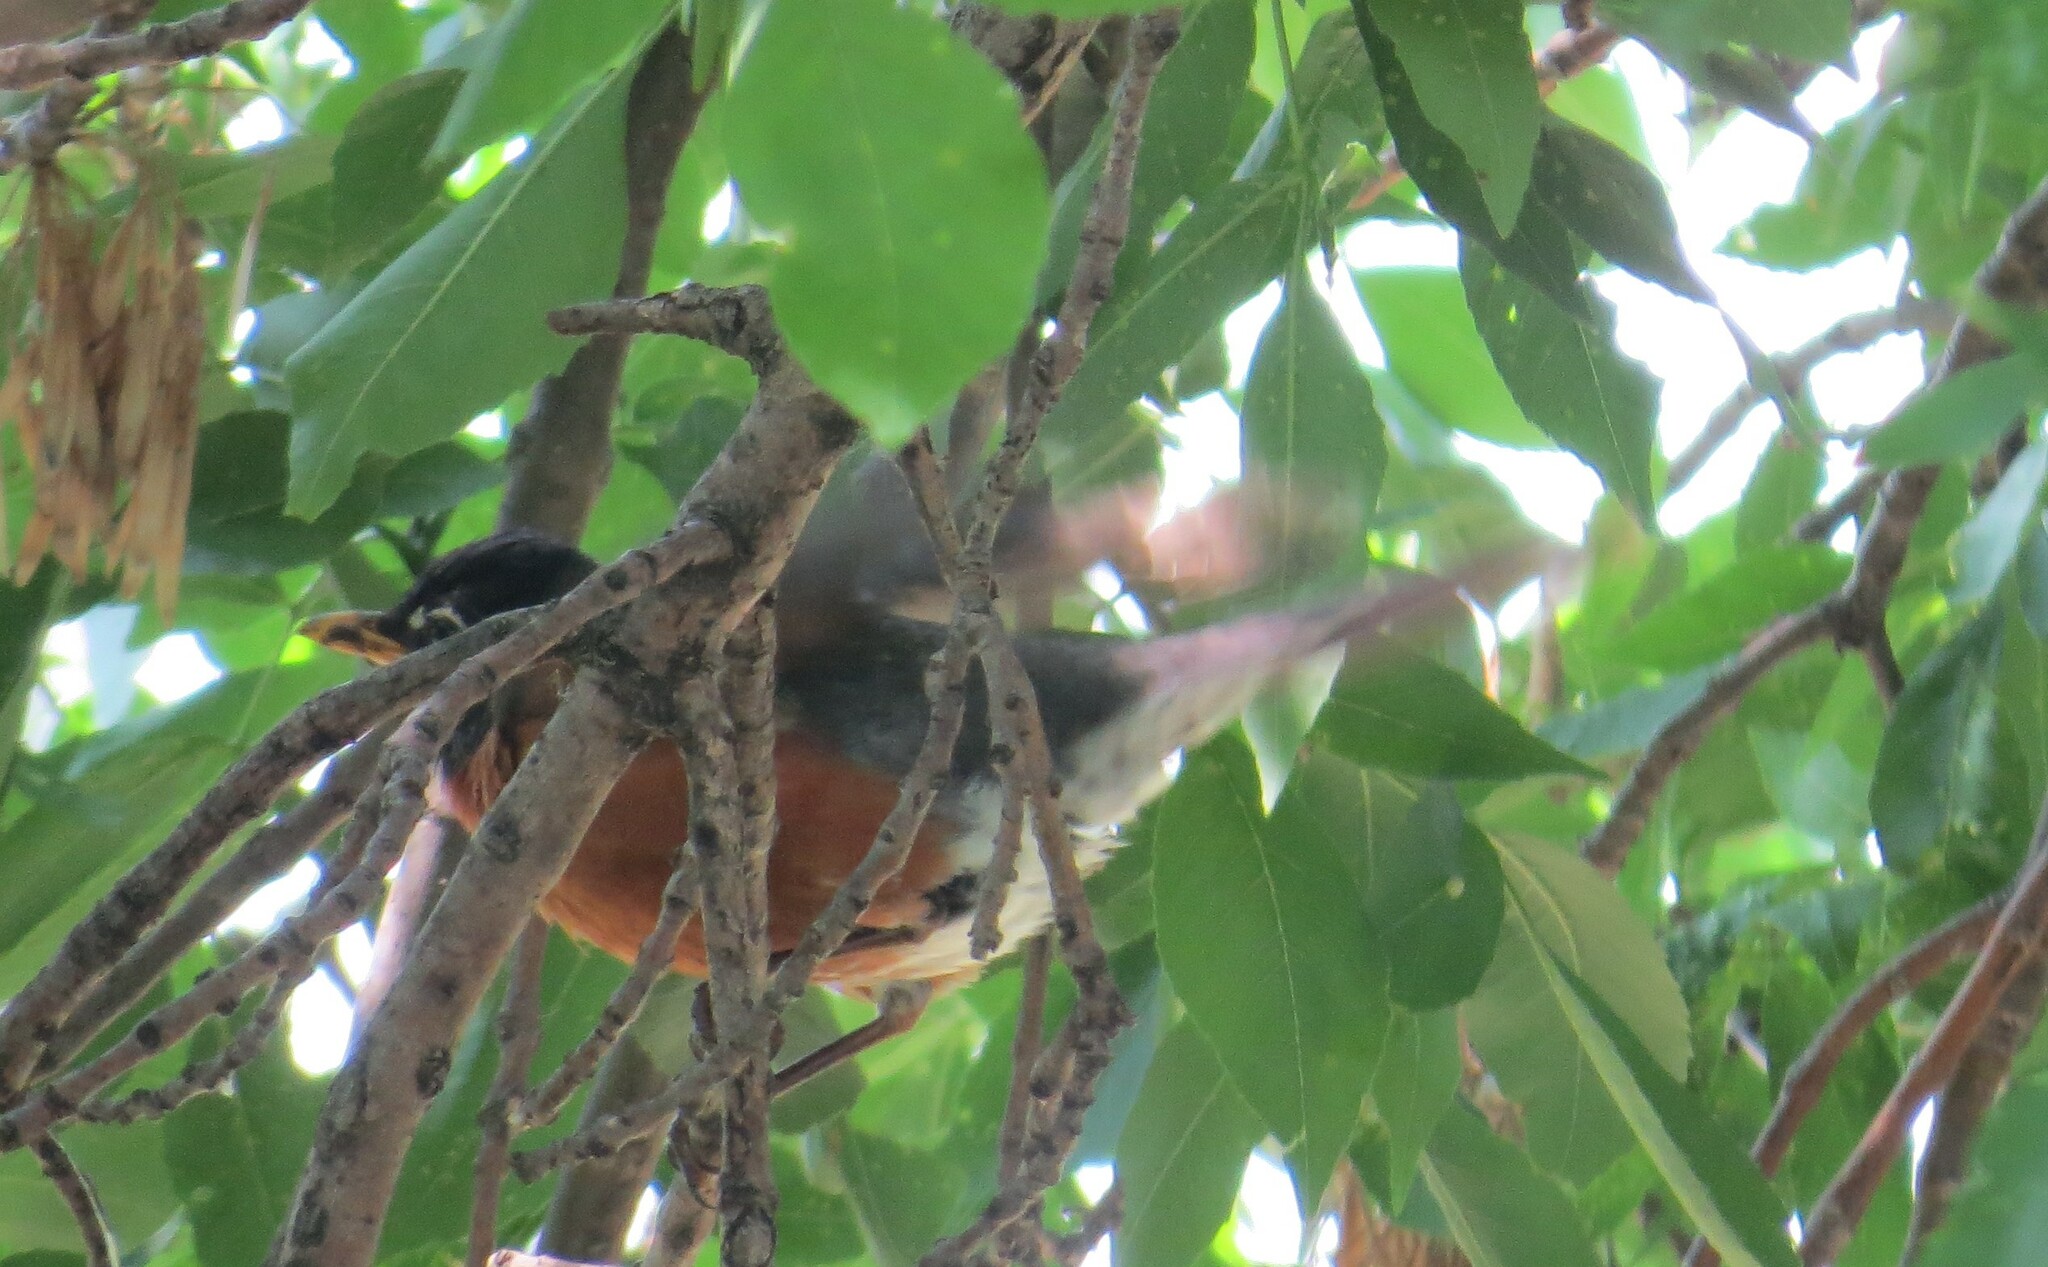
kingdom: Animalia
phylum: Chordata
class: Aves
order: Passeriformes
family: Turdidae
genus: Turdus
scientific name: Turdus migratorius
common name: American robin
